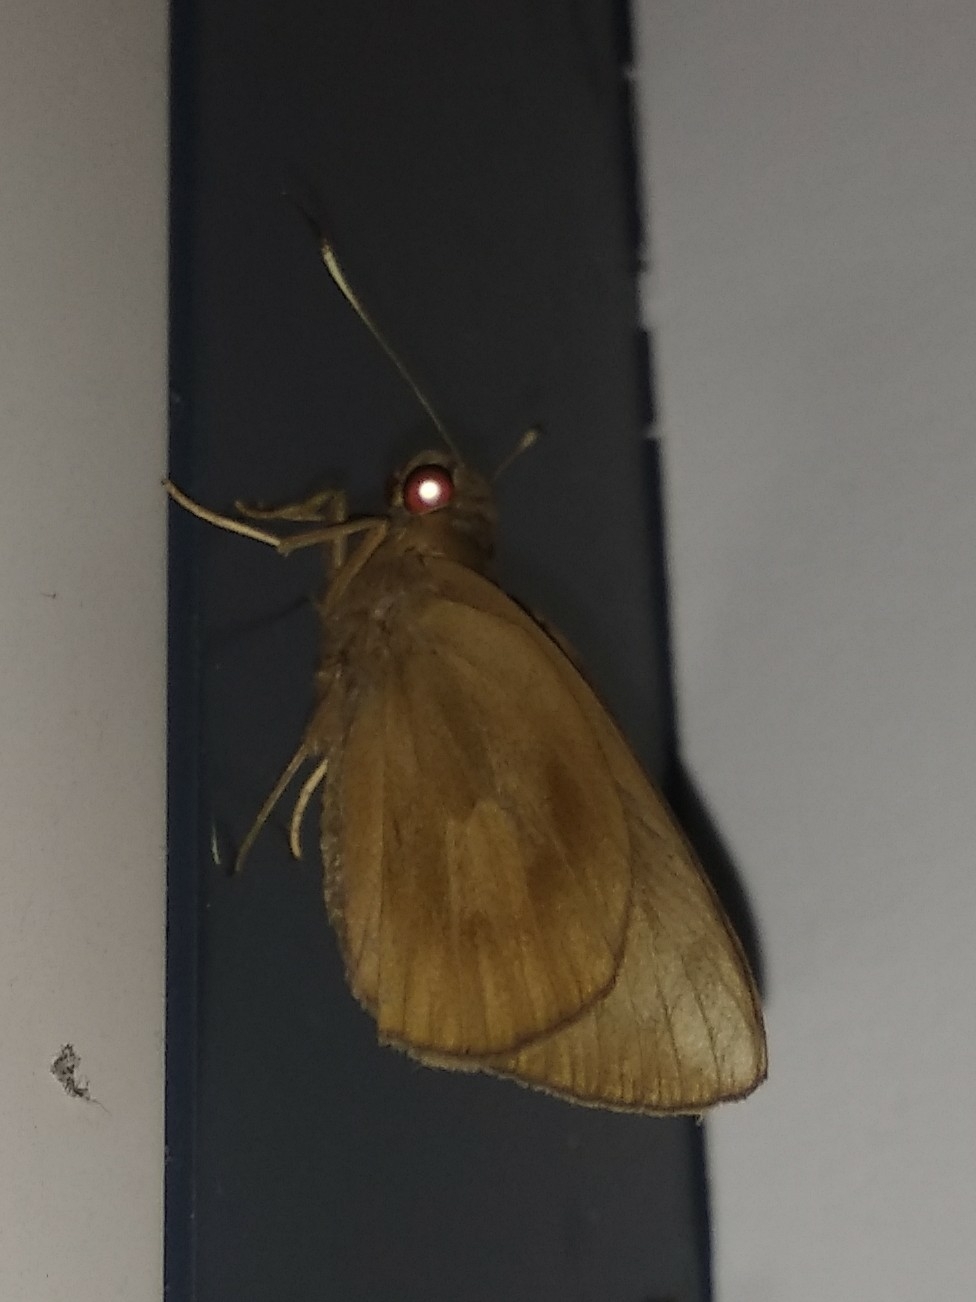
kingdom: Animalia
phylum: Arthropoda
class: Insecta
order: Lepidoptera
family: Hesperiidae
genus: Erionota
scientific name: Erionota torus
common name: Rounded palm-redeye
